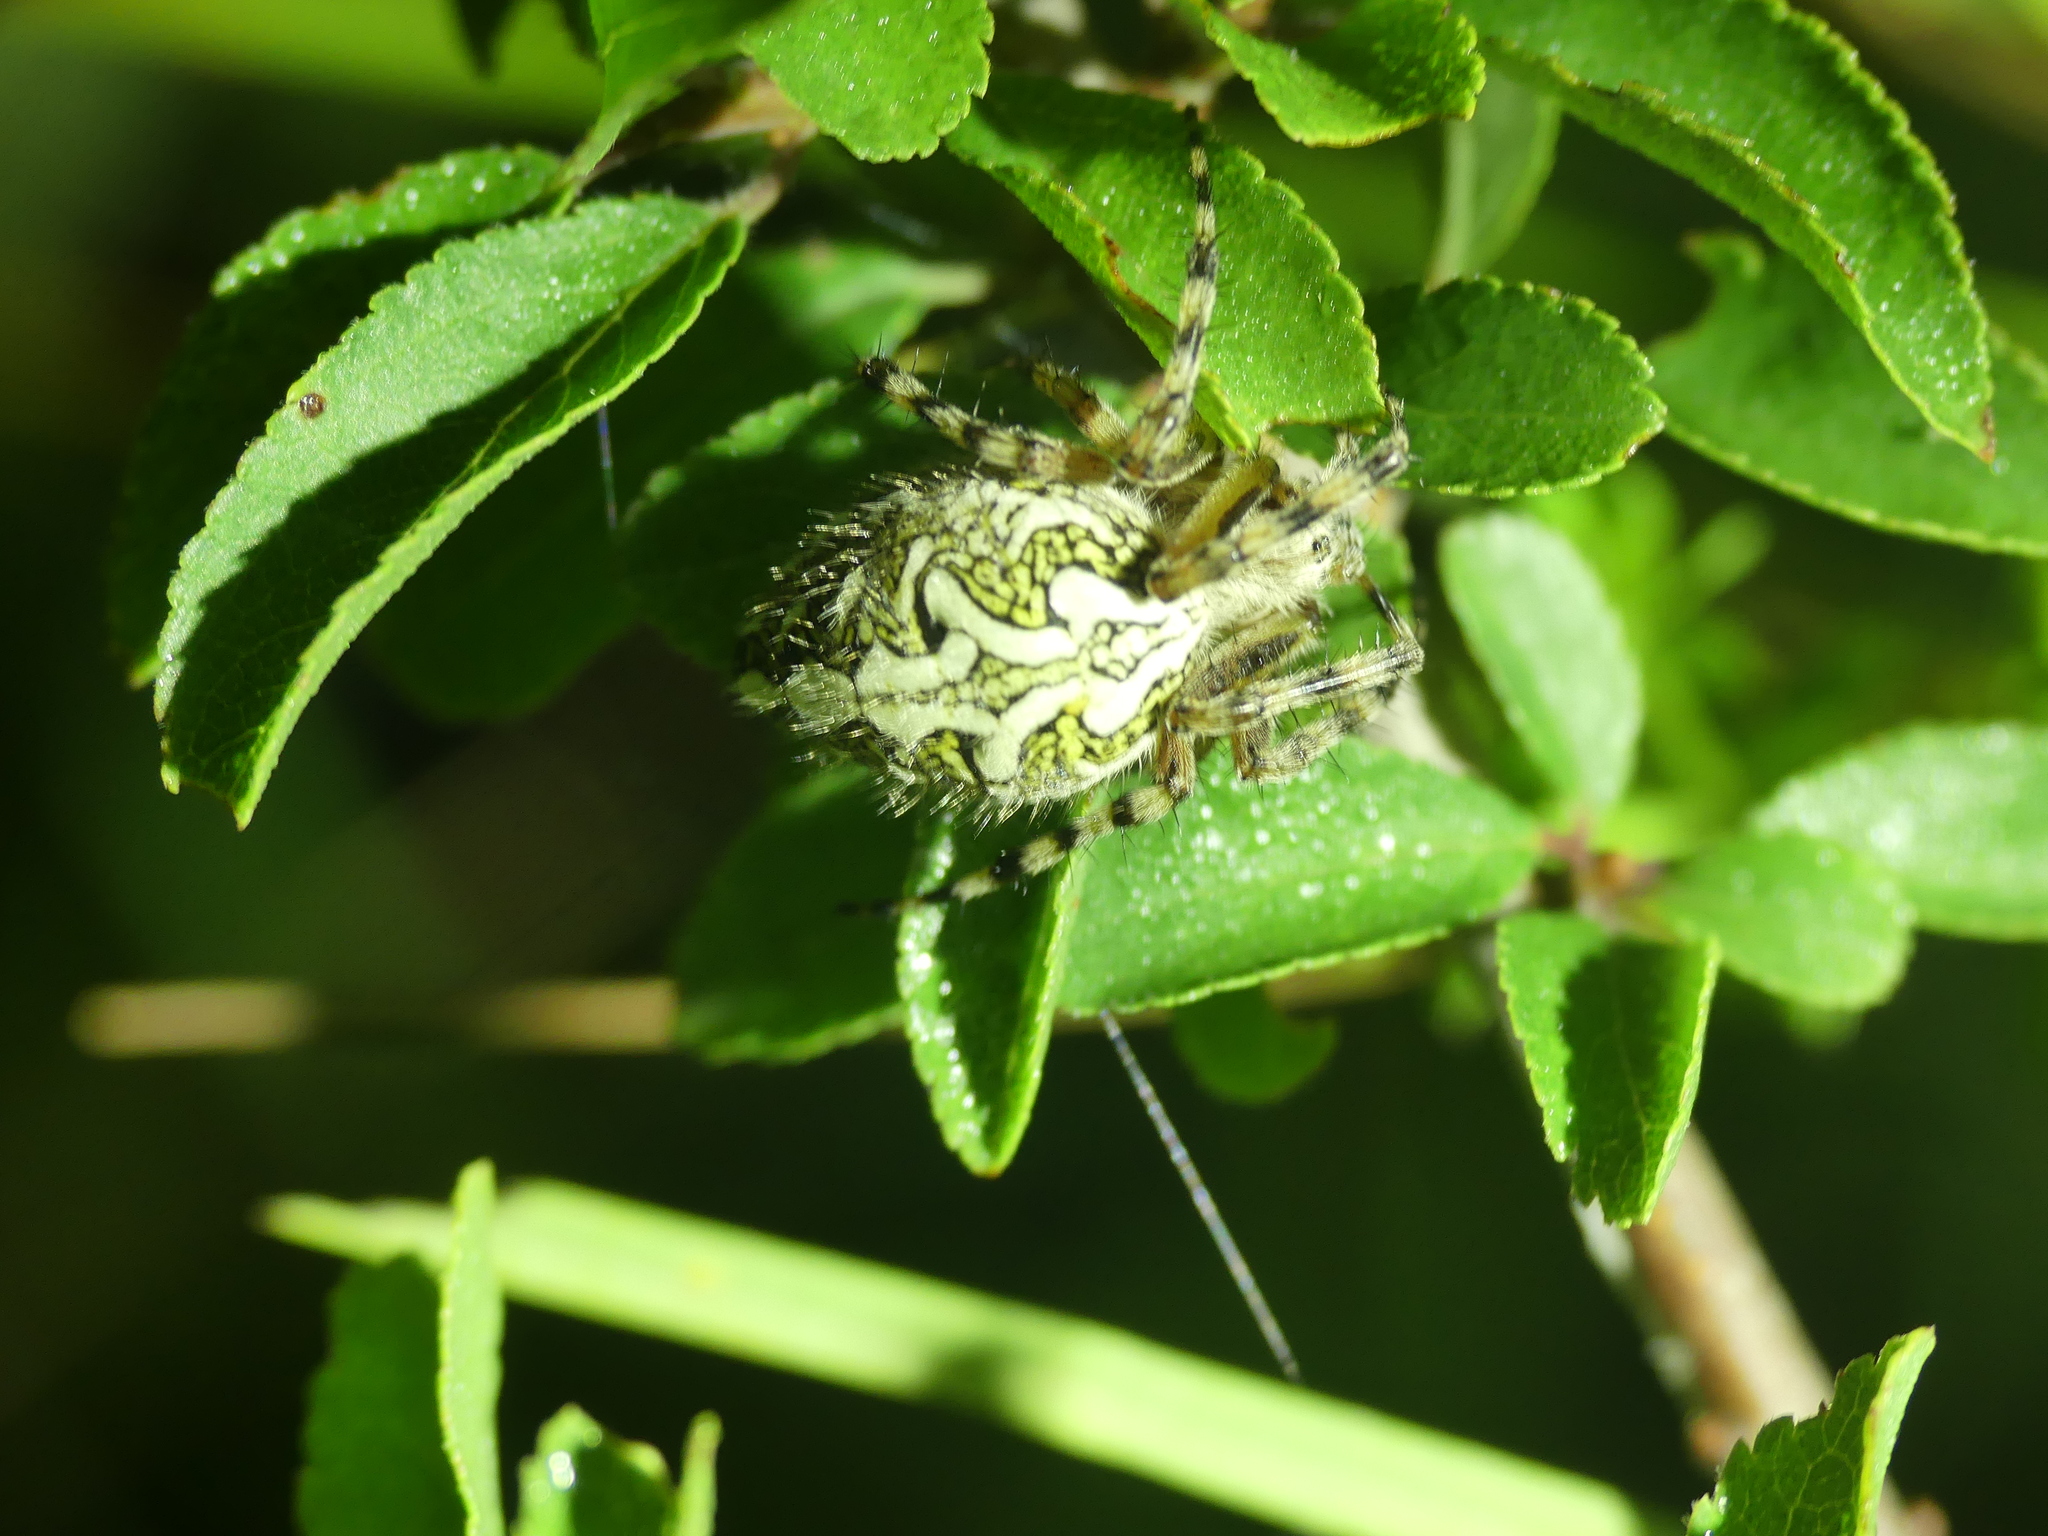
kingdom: Animalia
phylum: Arthropoda
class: Arachnida
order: Araneae
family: Araneidae
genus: Aculepeira
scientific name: Aculepeira ceropegia
